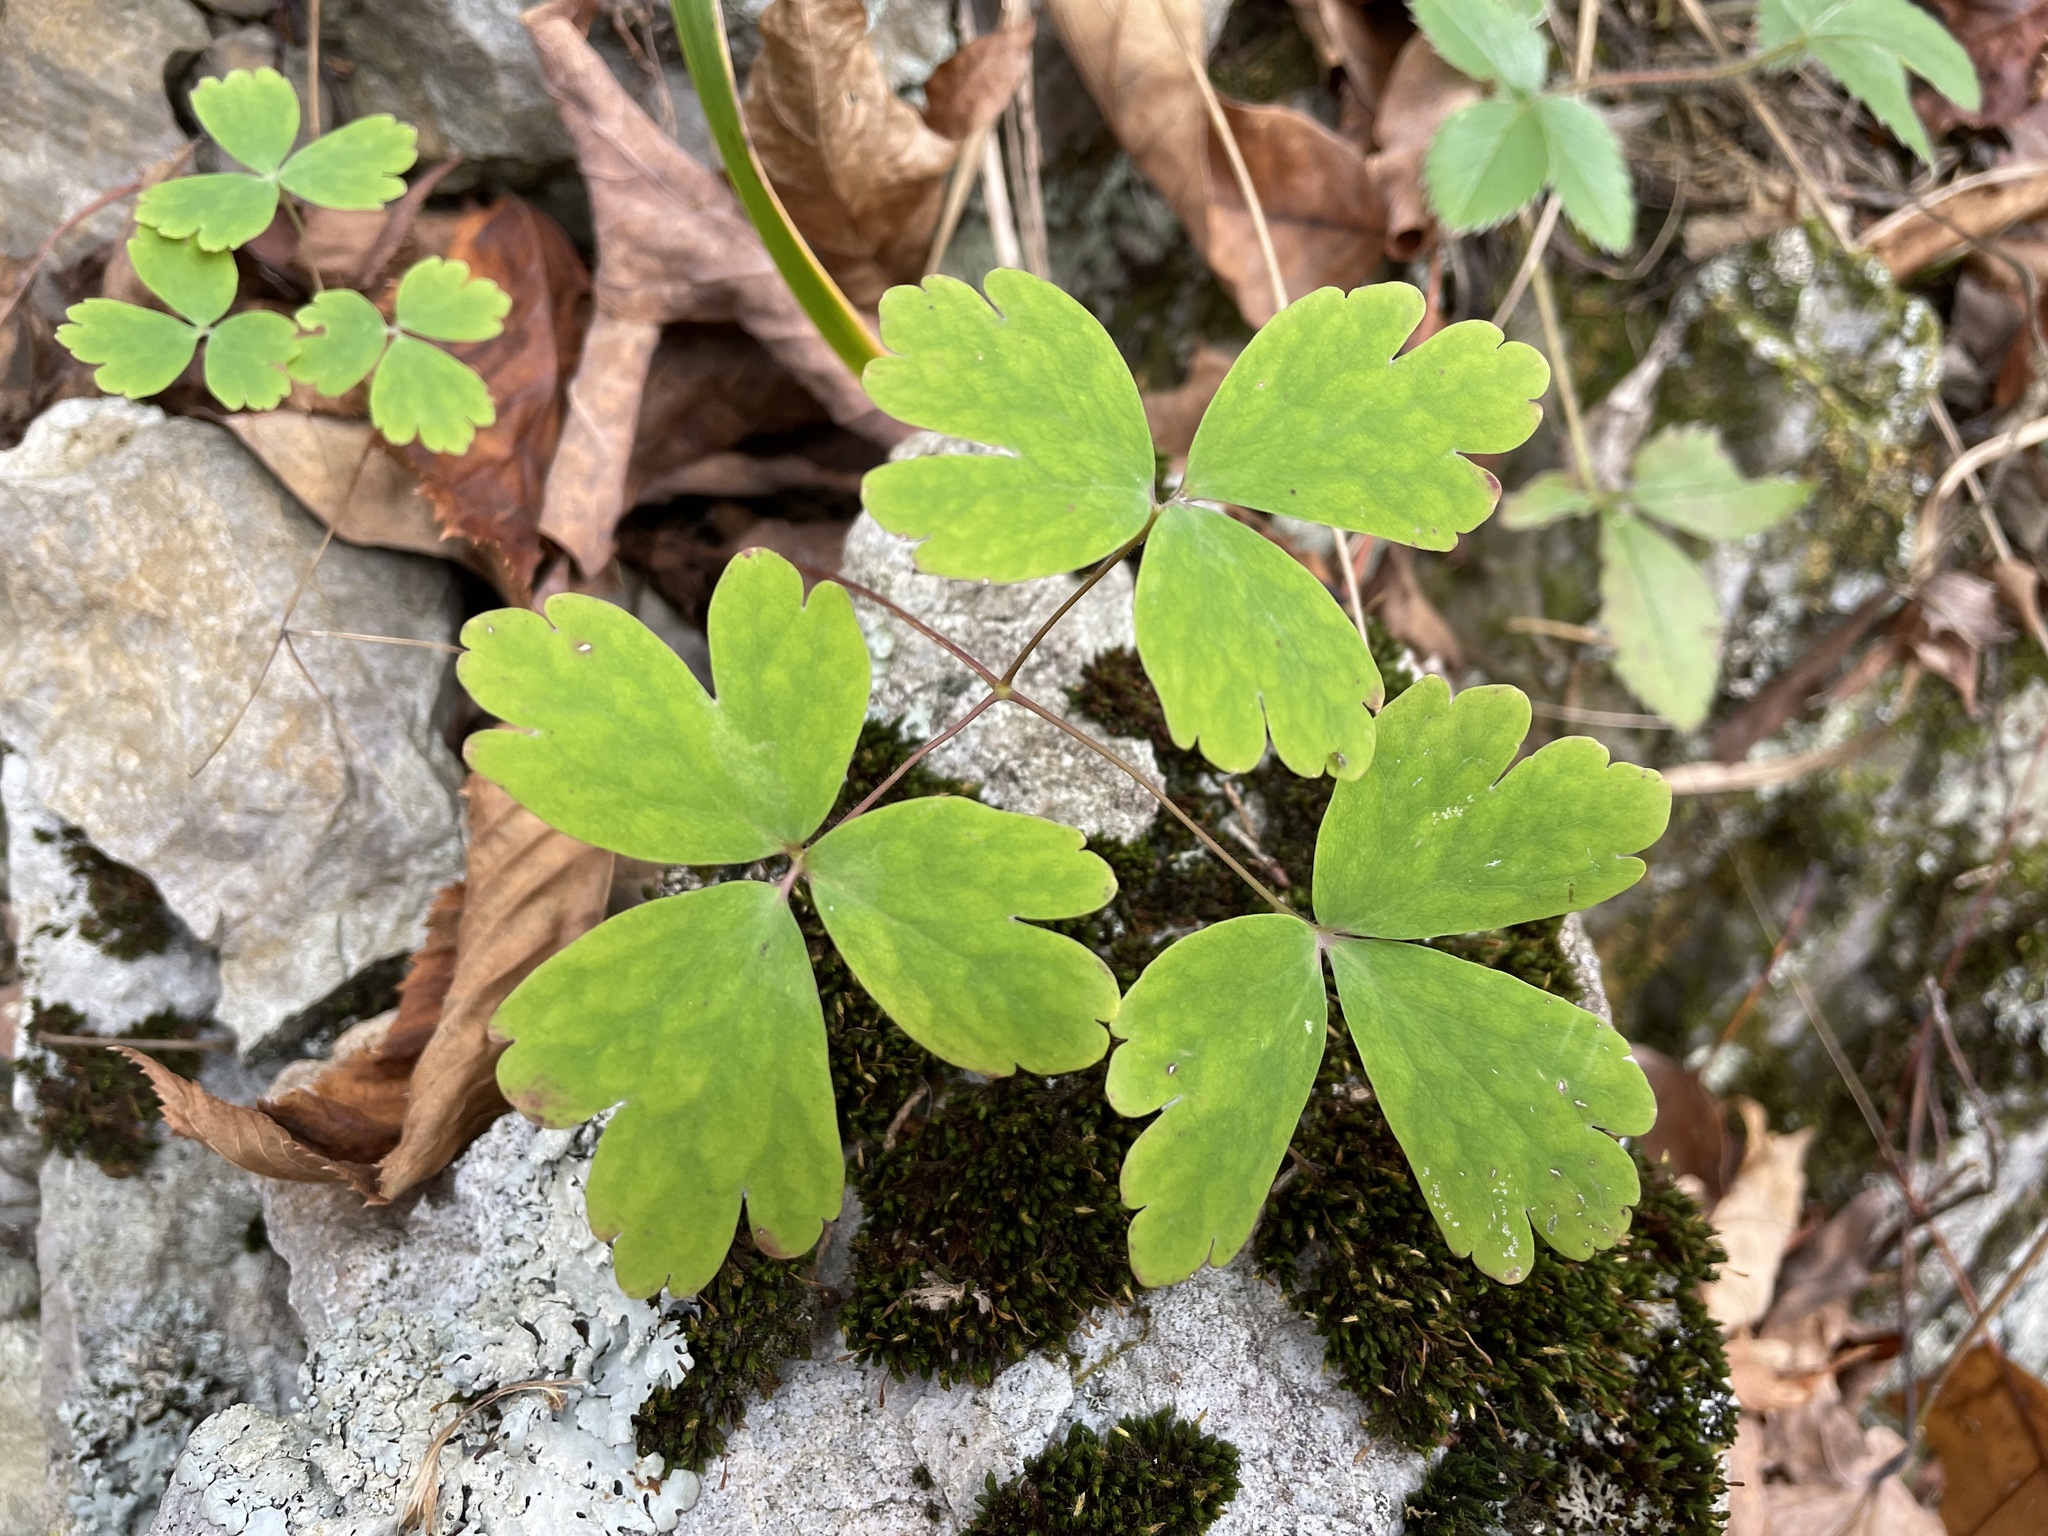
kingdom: Plantae
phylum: Tracheophyta
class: Magnoliopsida
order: Ranunculales
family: Ranunculaceae
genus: Aquilegia
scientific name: Aquilegia canadensis
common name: American columbine
